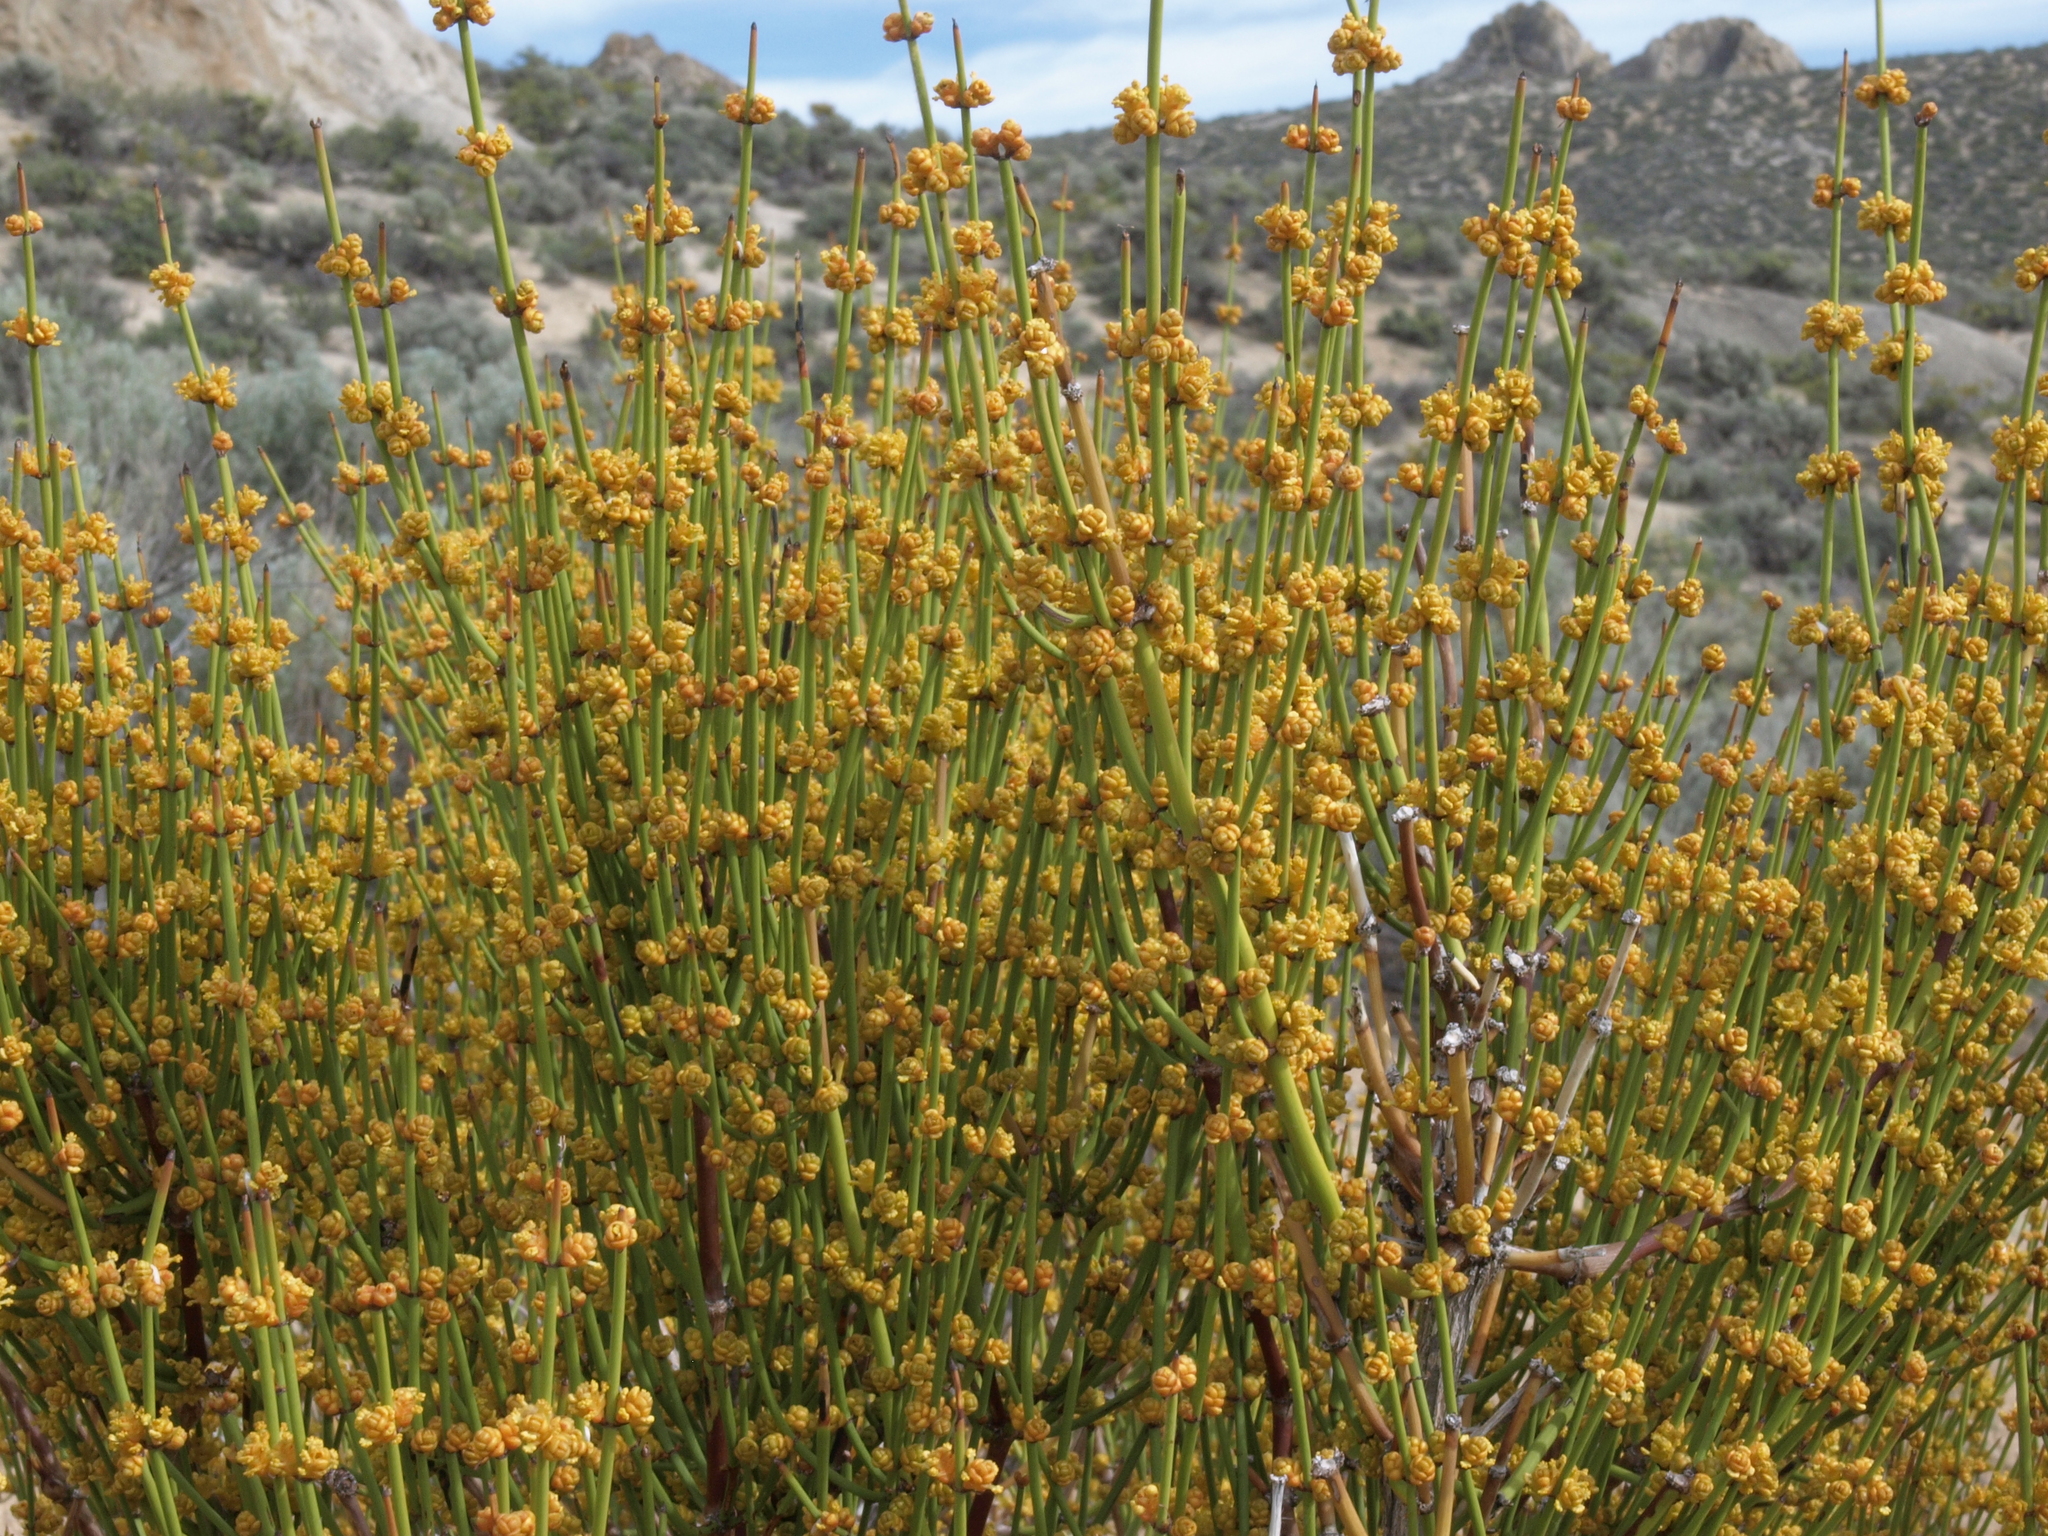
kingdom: Plantae
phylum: Tracheophyta
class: Gnetopsida
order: Ephedrales
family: Ephedraceae
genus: Ephedra
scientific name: Ephedra viridis
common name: Green ephedra
